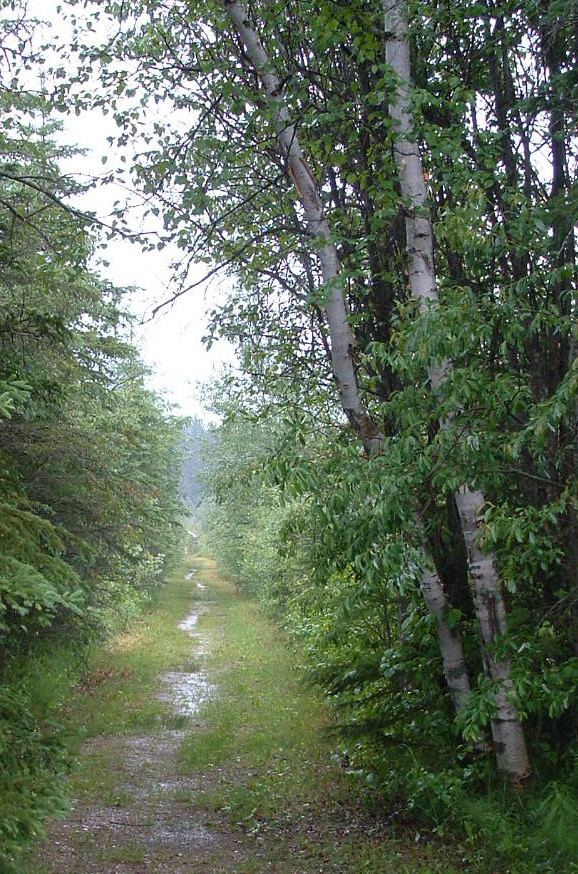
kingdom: Plantae
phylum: Tracheophyta
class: Magnoliopsida
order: Fagales
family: Betulaceae
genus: Betula
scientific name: Betula papyrifera
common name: Paper birch
